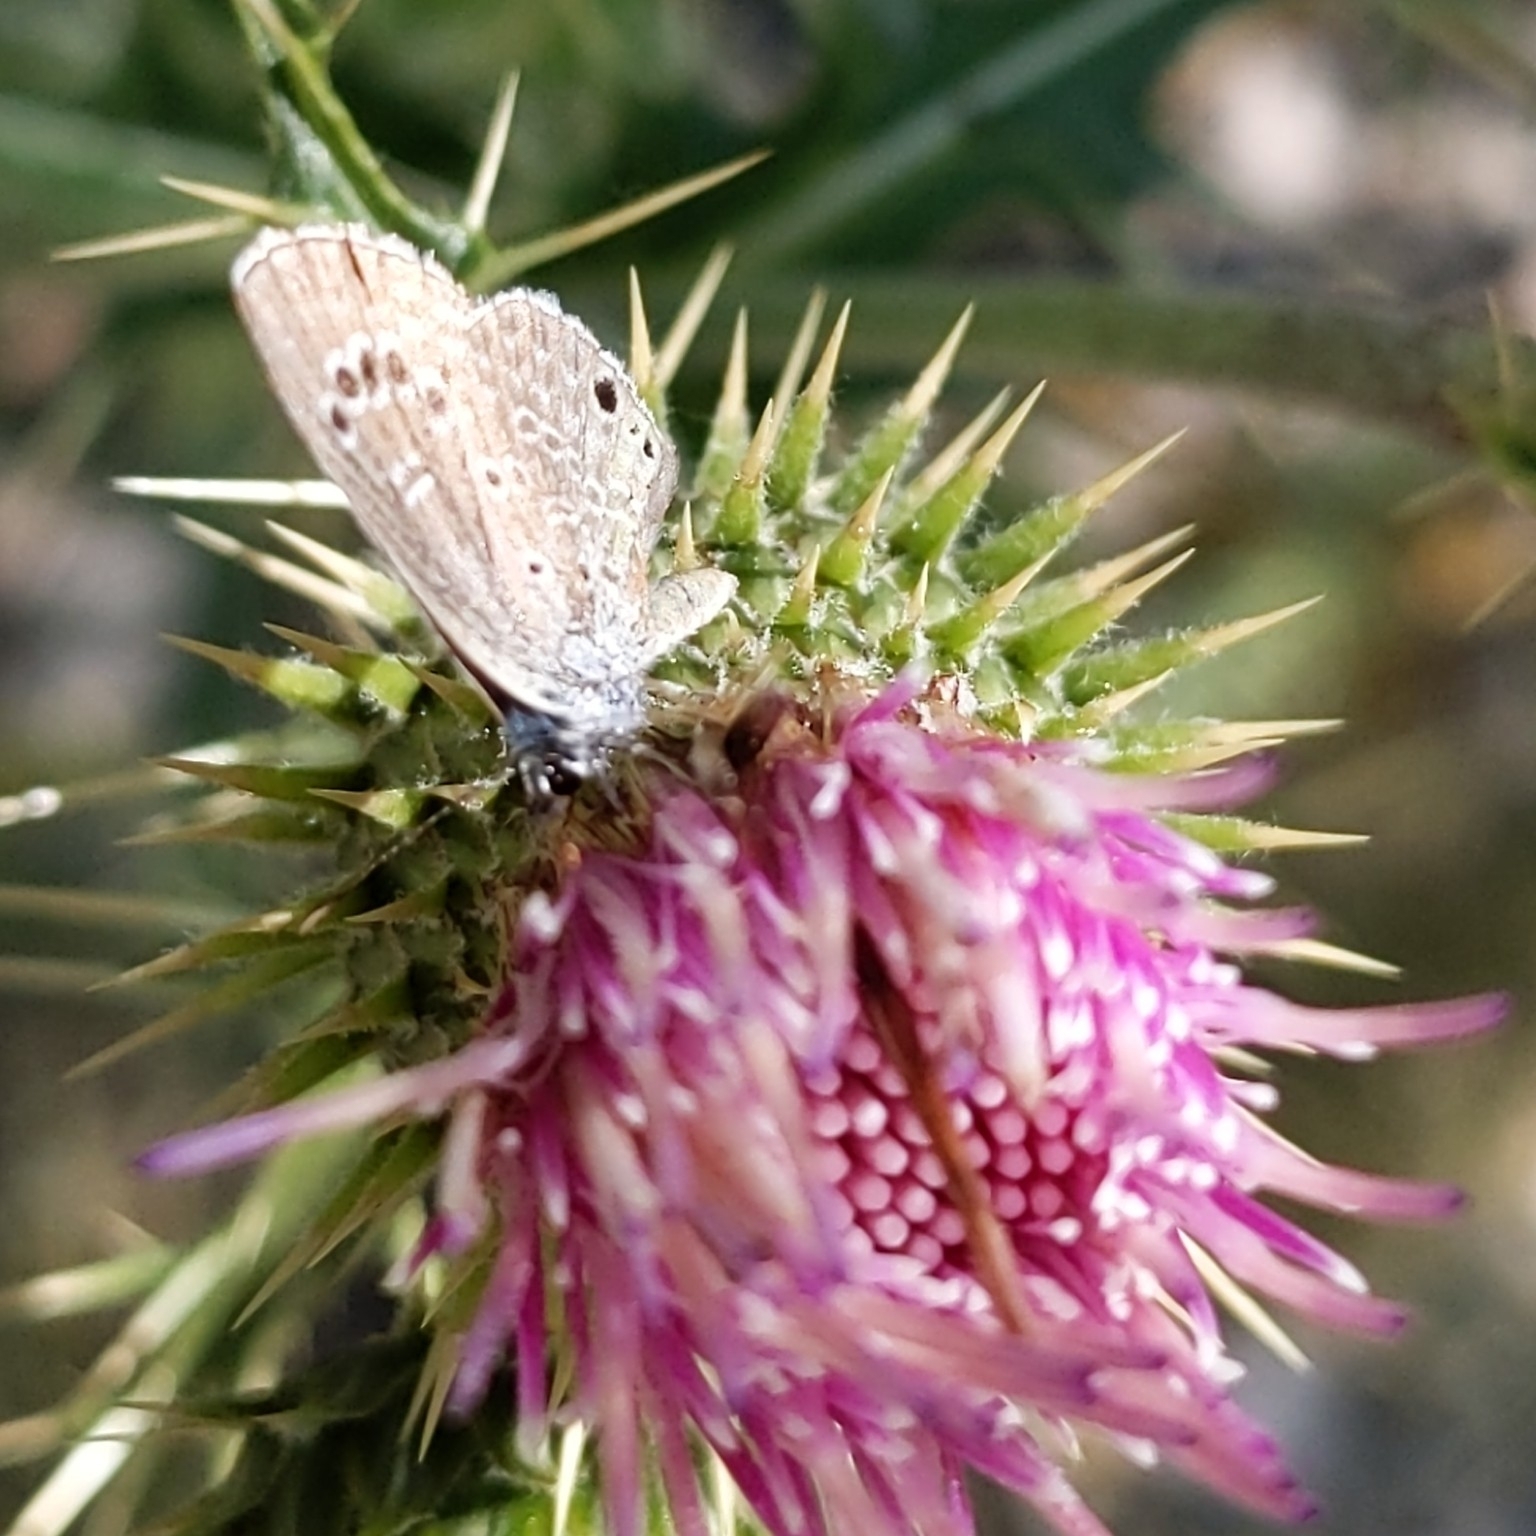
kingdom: Animalia
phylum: Arthropoda
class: Insecta
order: Lepidoptera
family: Lycaenidae
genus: Echinargus
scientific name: Echinargus isola
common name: Reakirt's blue
